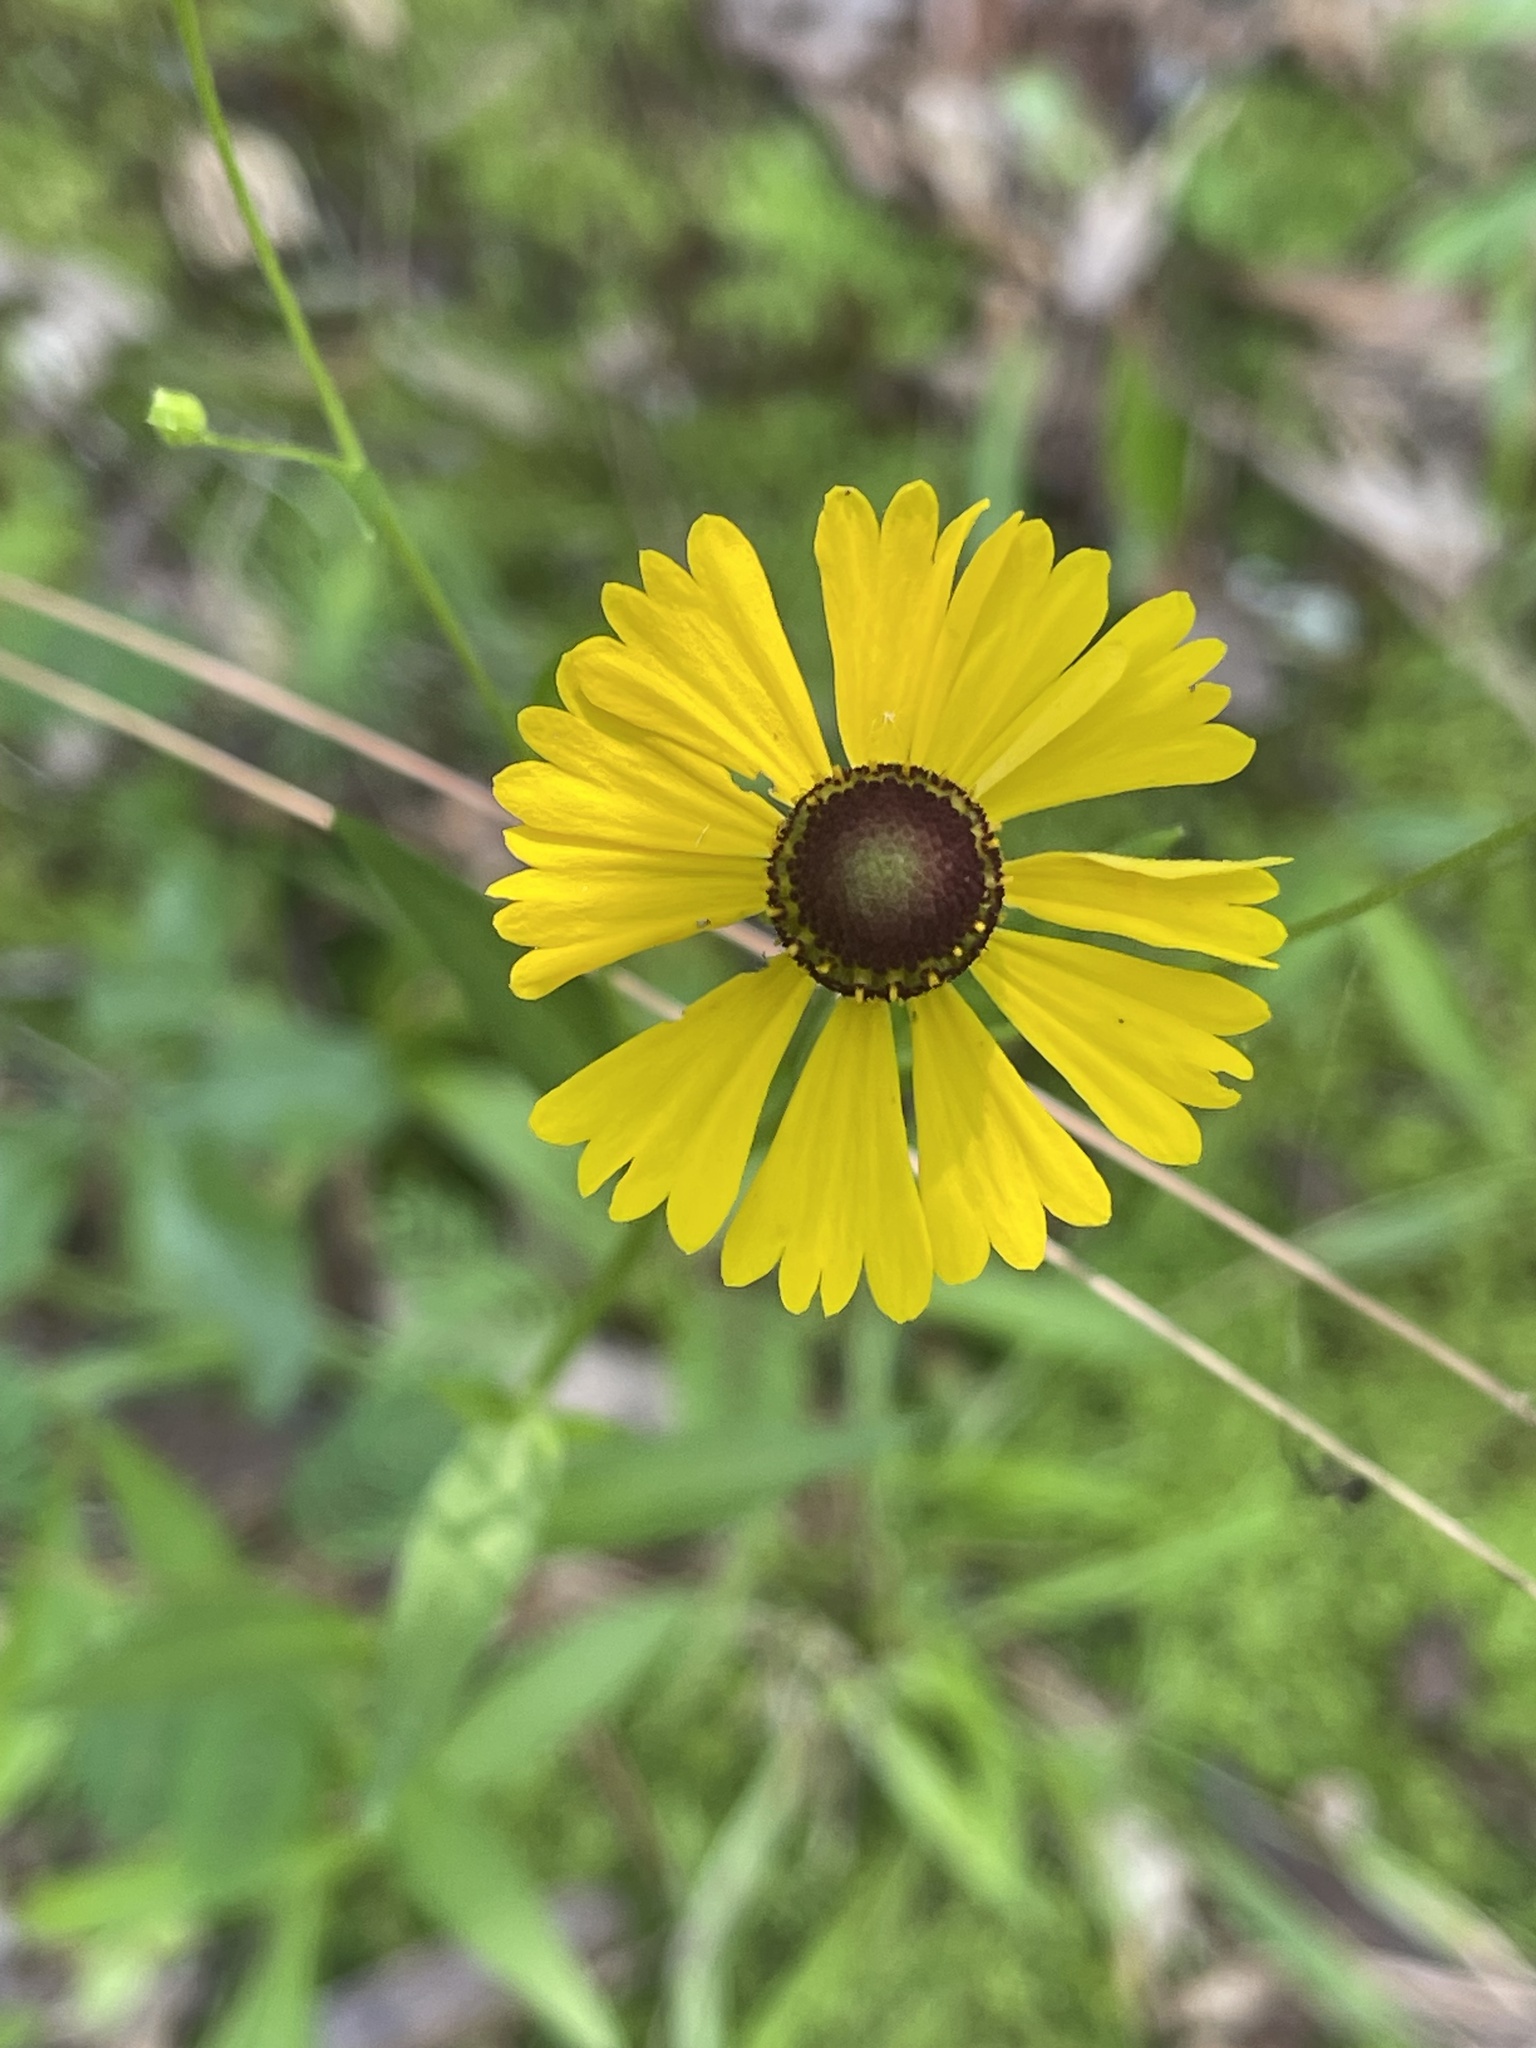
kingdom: Plantae
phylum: Tracheophyta
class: Magnoliopsida
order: Asterales
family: Asteraceae
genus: Helenium
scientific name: Helenium flexuosum
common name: Naked-flowered sneezeweed
